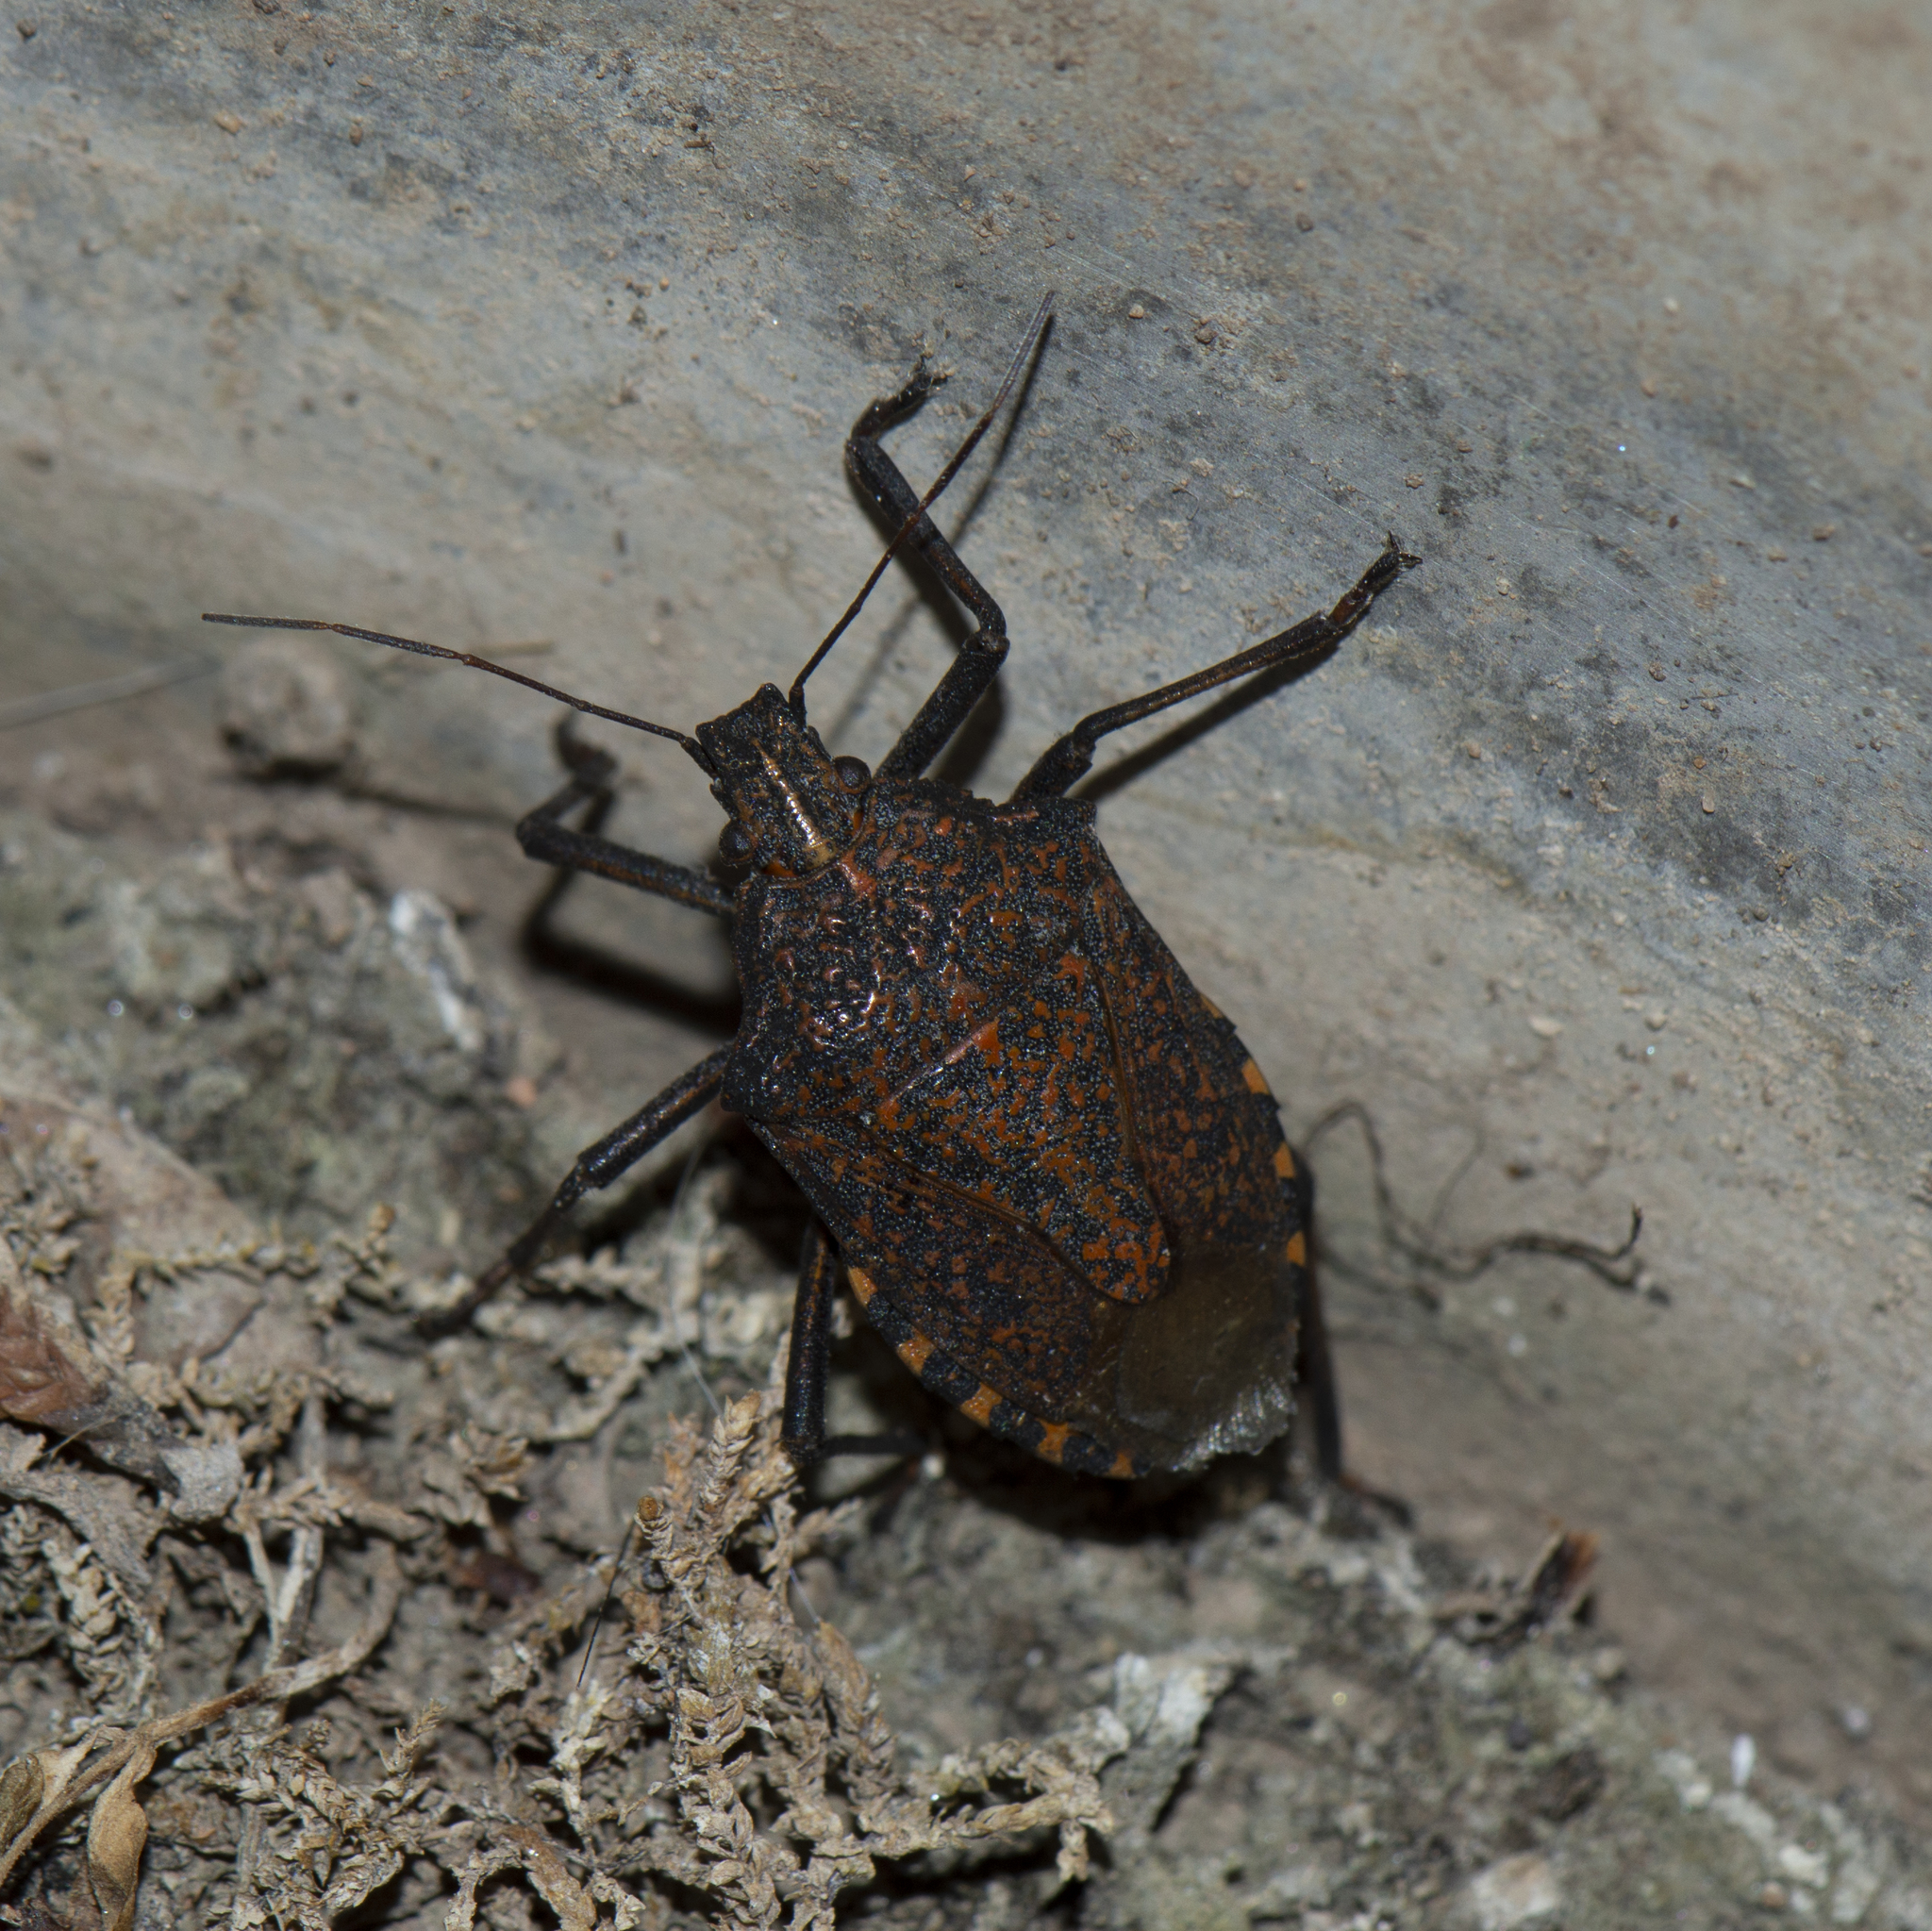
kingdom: Animalia
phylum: Arthropoda
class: Insecta
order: Hemiptera
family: Pentatomidae
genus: Apodiphus
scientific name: Apodiphus amygdali
